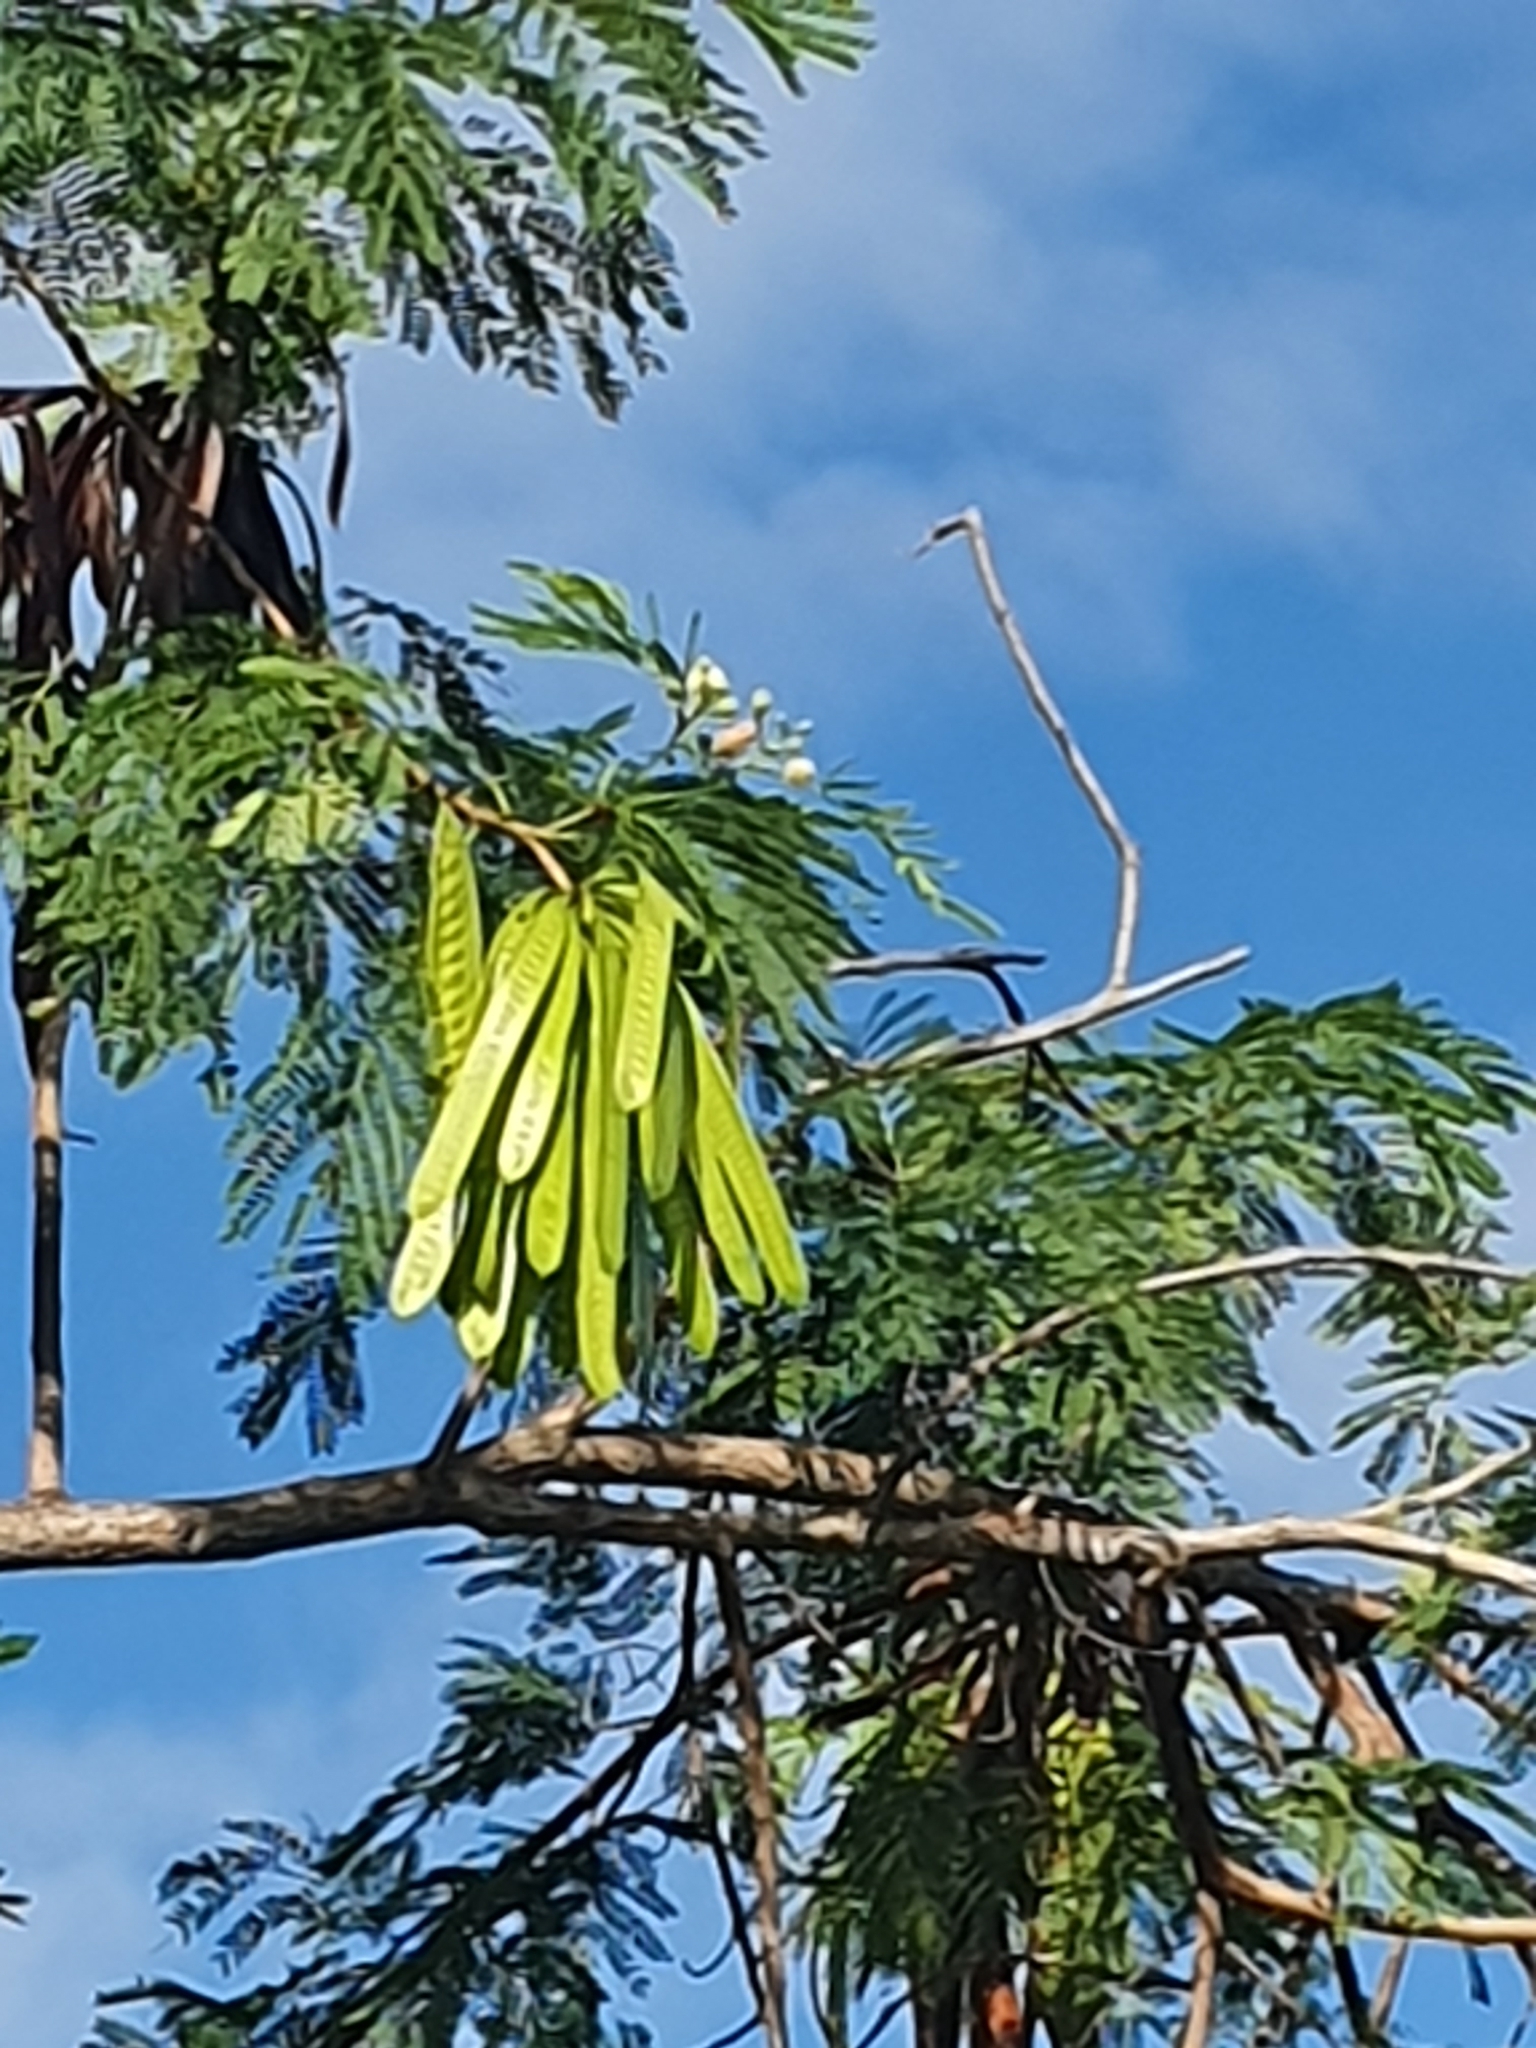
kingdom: Plantae
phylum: Tracheophyta
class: Magnoliopsida
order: Fabales
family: Fabaceae
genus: Leucaena
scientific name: Leucaena leucocephala
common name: White leadtree
